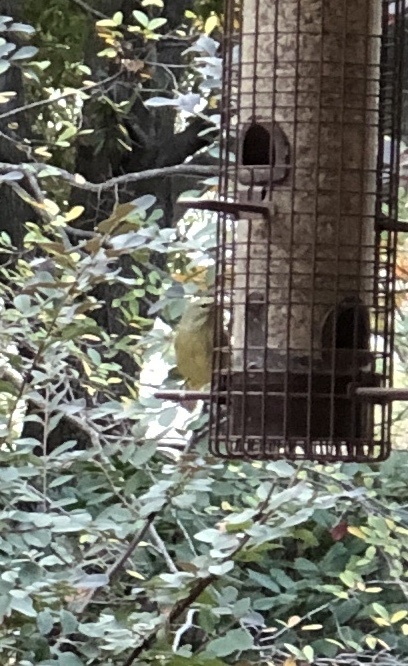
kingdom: Animalia
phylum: Chordata
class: Aves
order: Passeriformes
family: Parulidae
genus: Leiothlypis
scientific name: Leiothlypis celata
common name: Orange-crowned warbler
